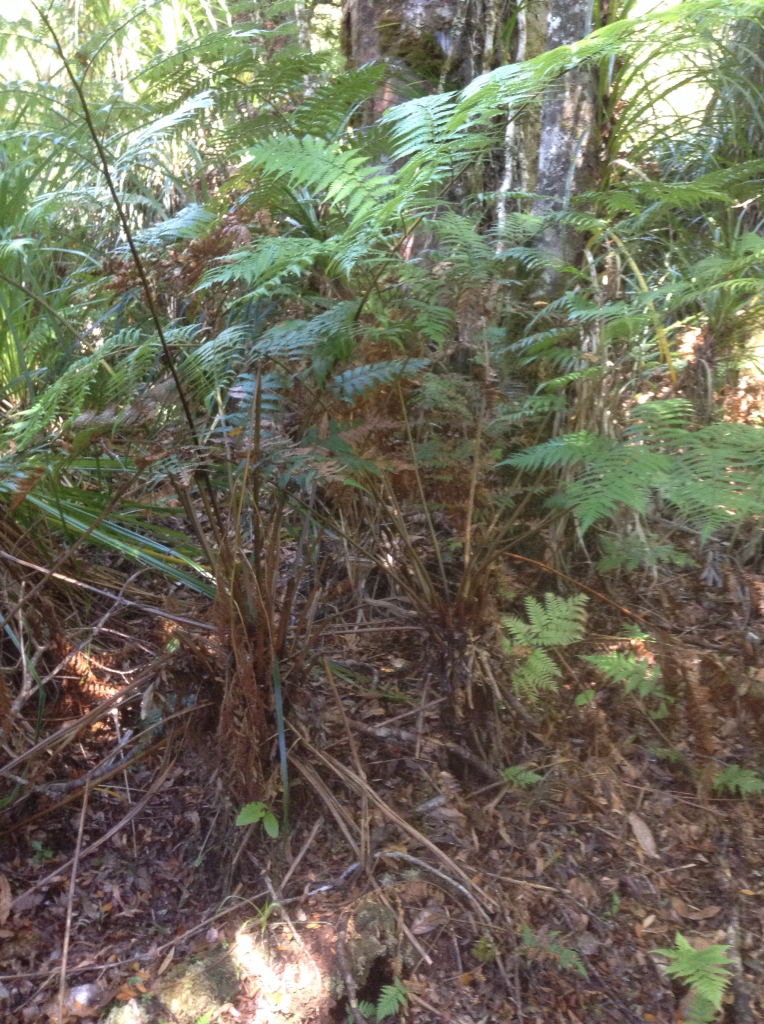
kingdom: Plantae
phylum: Tracheophyta
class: Polypodiopsida
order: Cyatheales
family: Dicksoniaceae
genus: Dicksonia
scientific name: Dicksonia lanata
